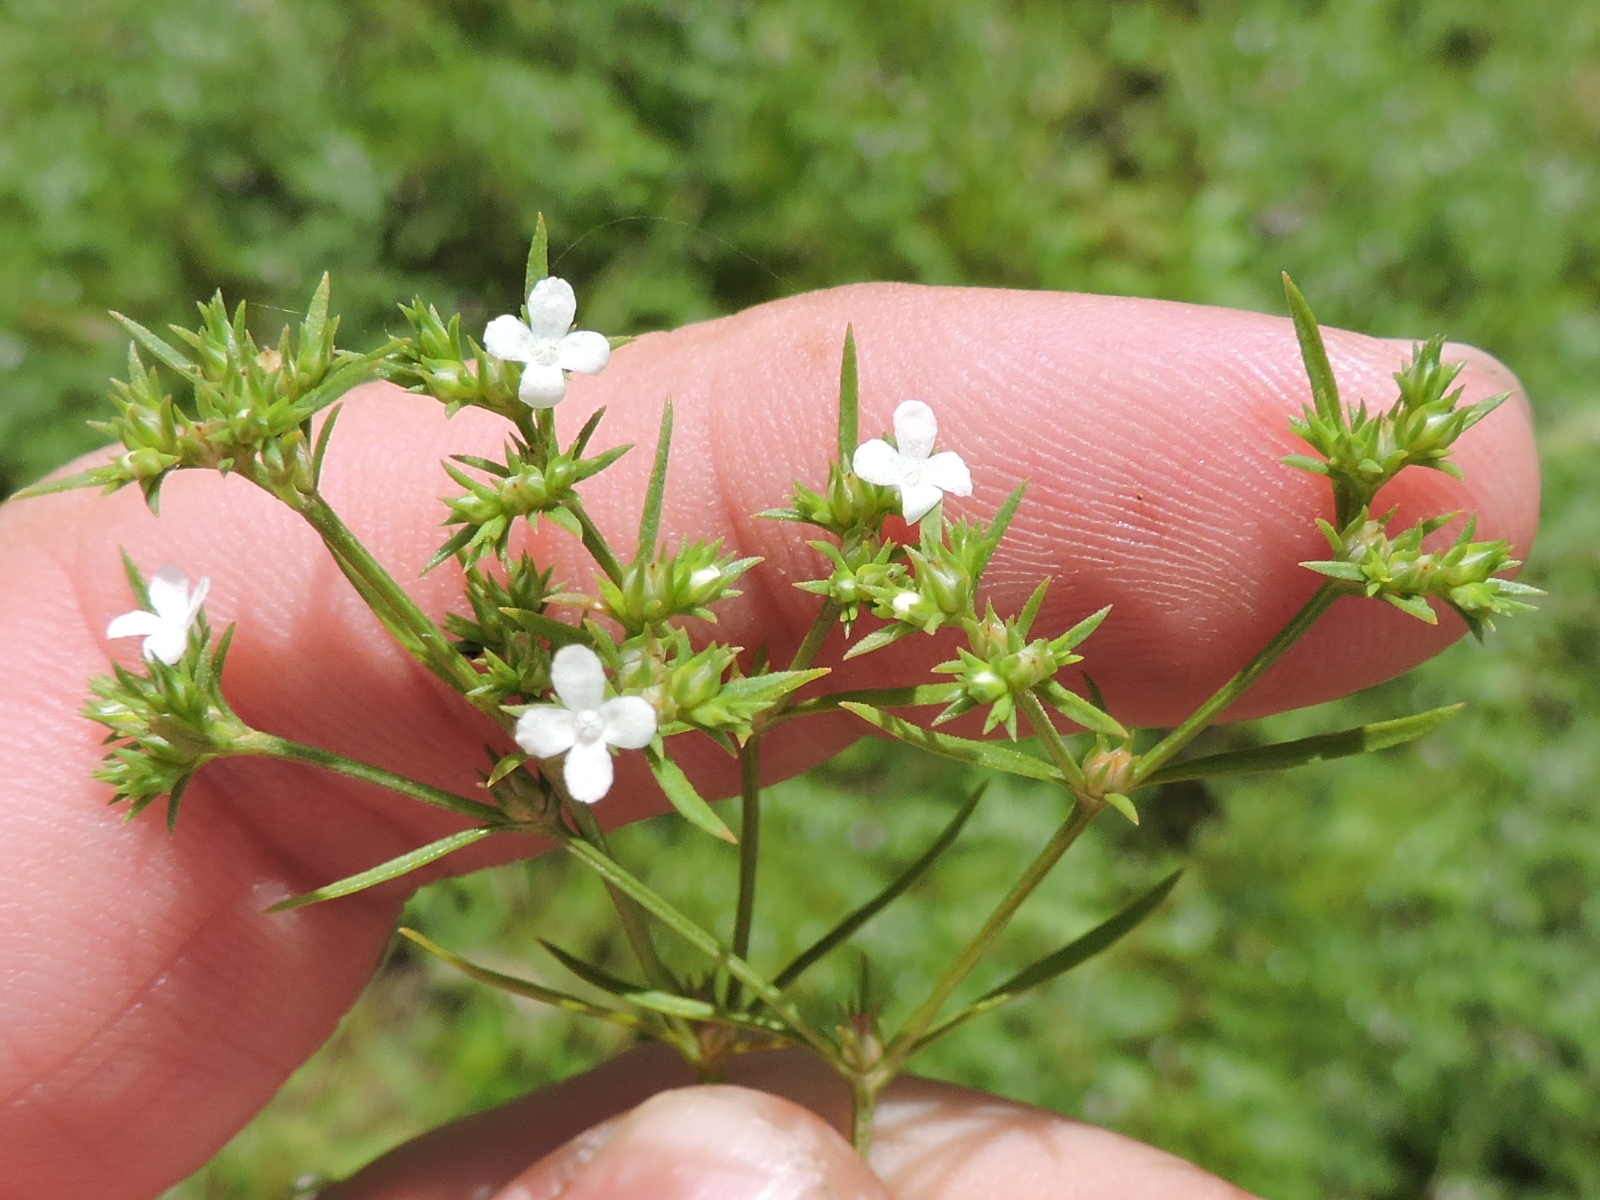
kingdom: Plantae
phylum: Tracheophyta
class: Magnoliopsida
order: Lamiales
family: Tetrachondraceae
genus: Polypremum
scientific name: Polypremum procumbens
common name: Juniper-leaf
